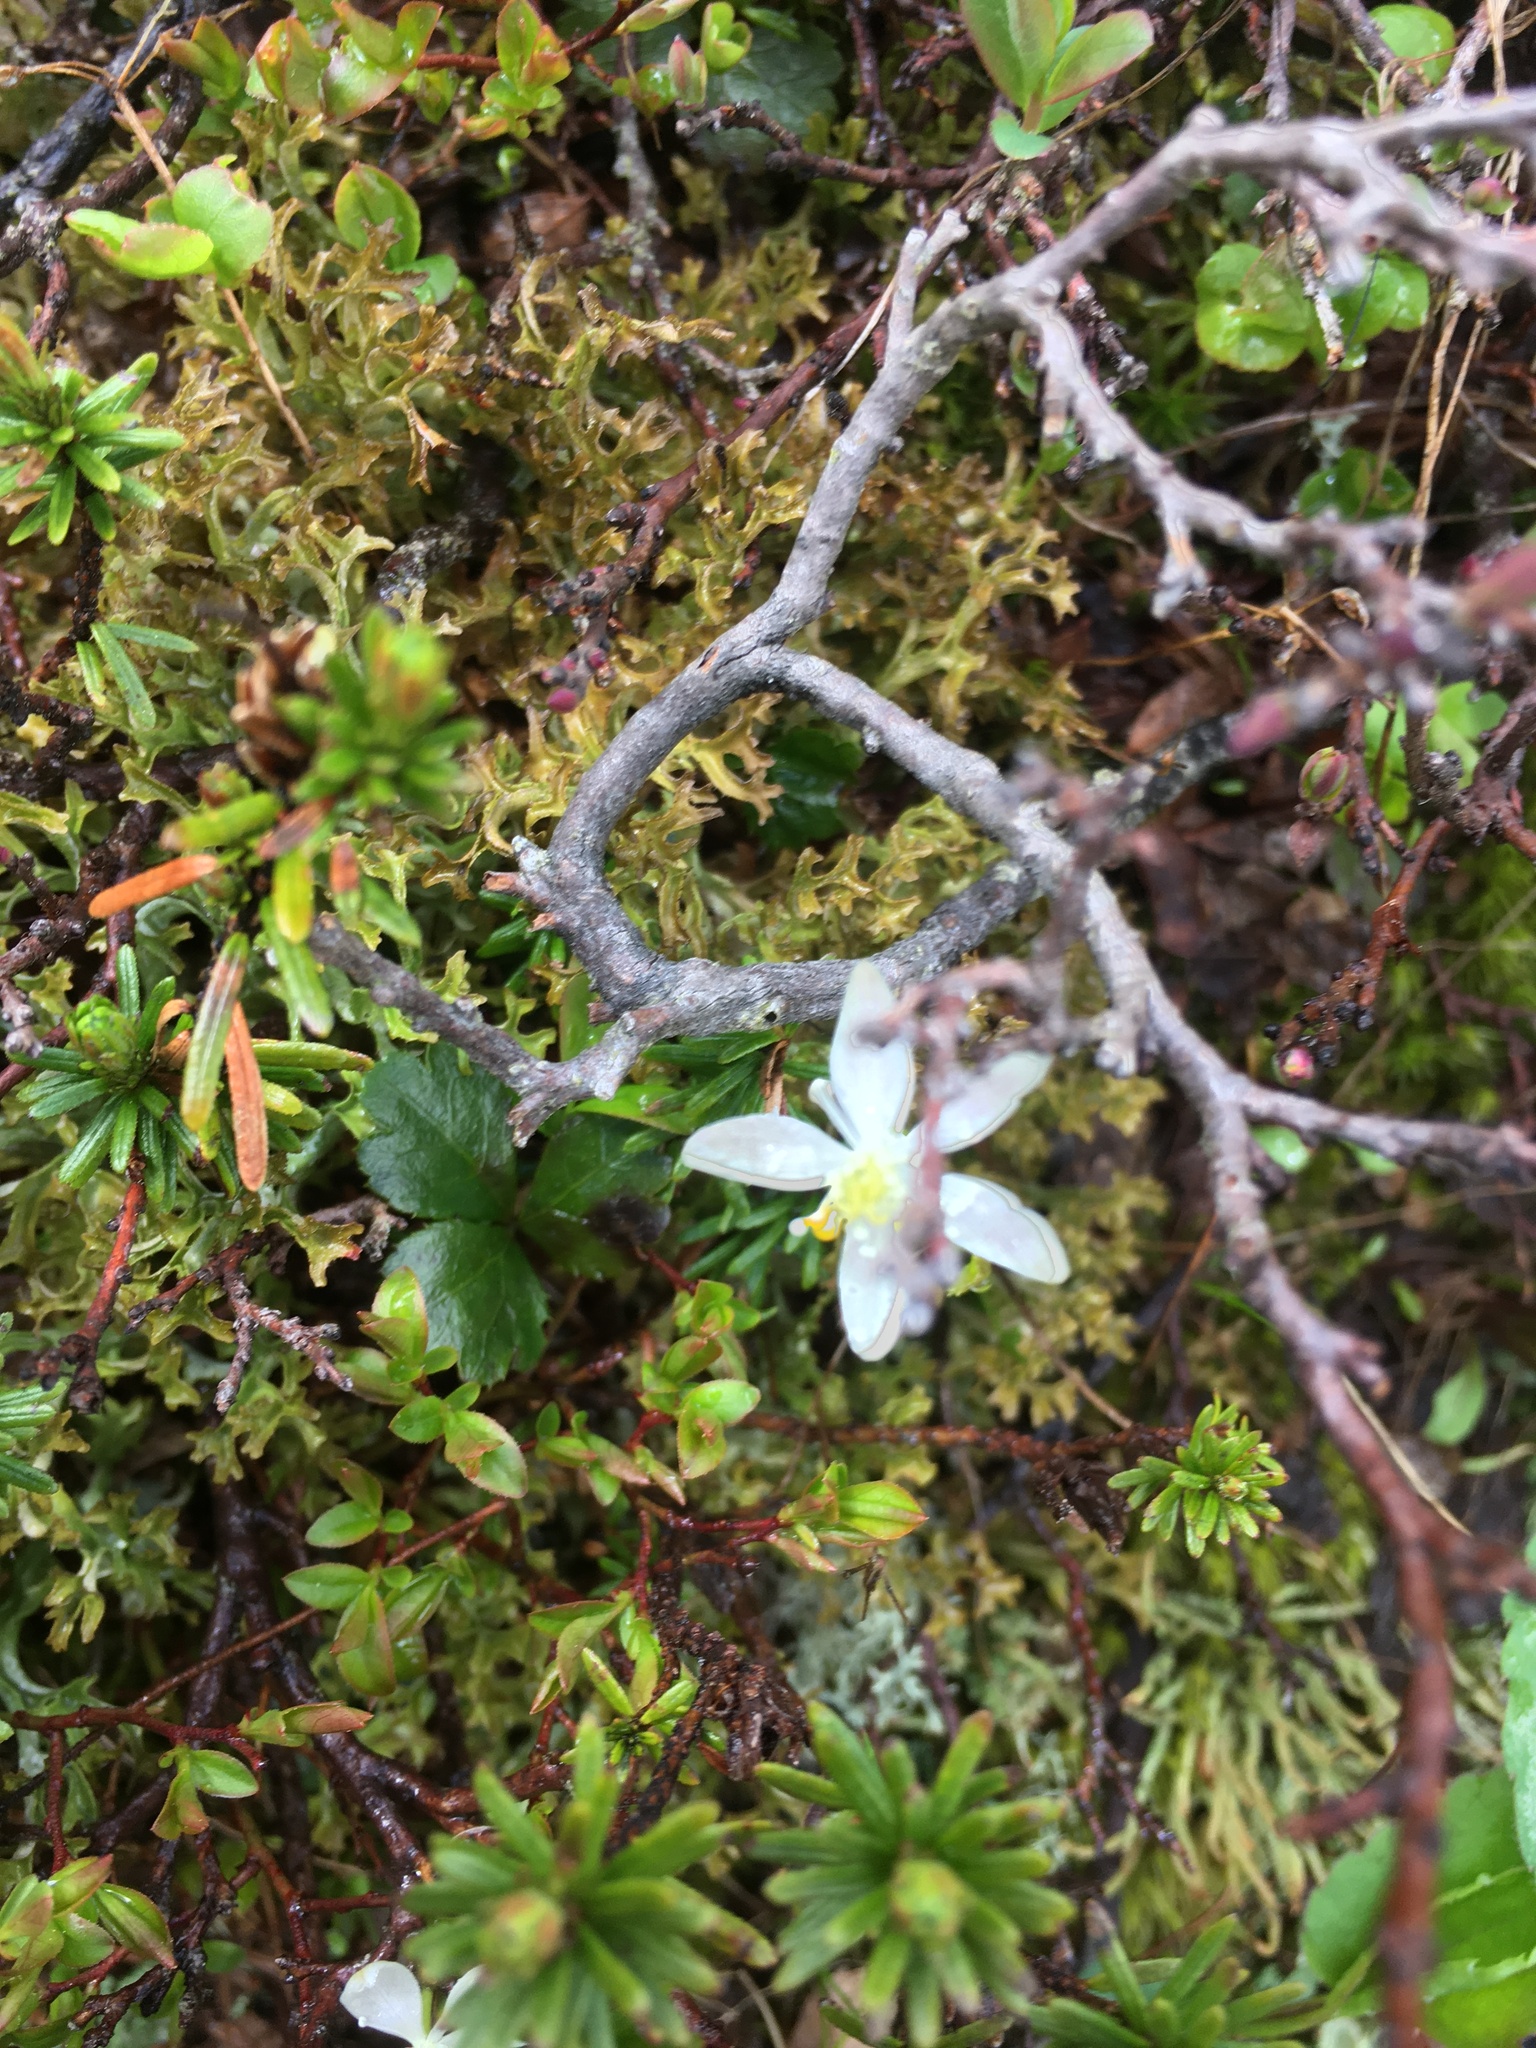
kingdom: Plantae
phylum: Tracheophyta
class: Magnoliopsida
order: Ranunculales
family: Ranunculaceae
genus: Coptis
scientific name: Coptis trifolia
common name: Canker-root
